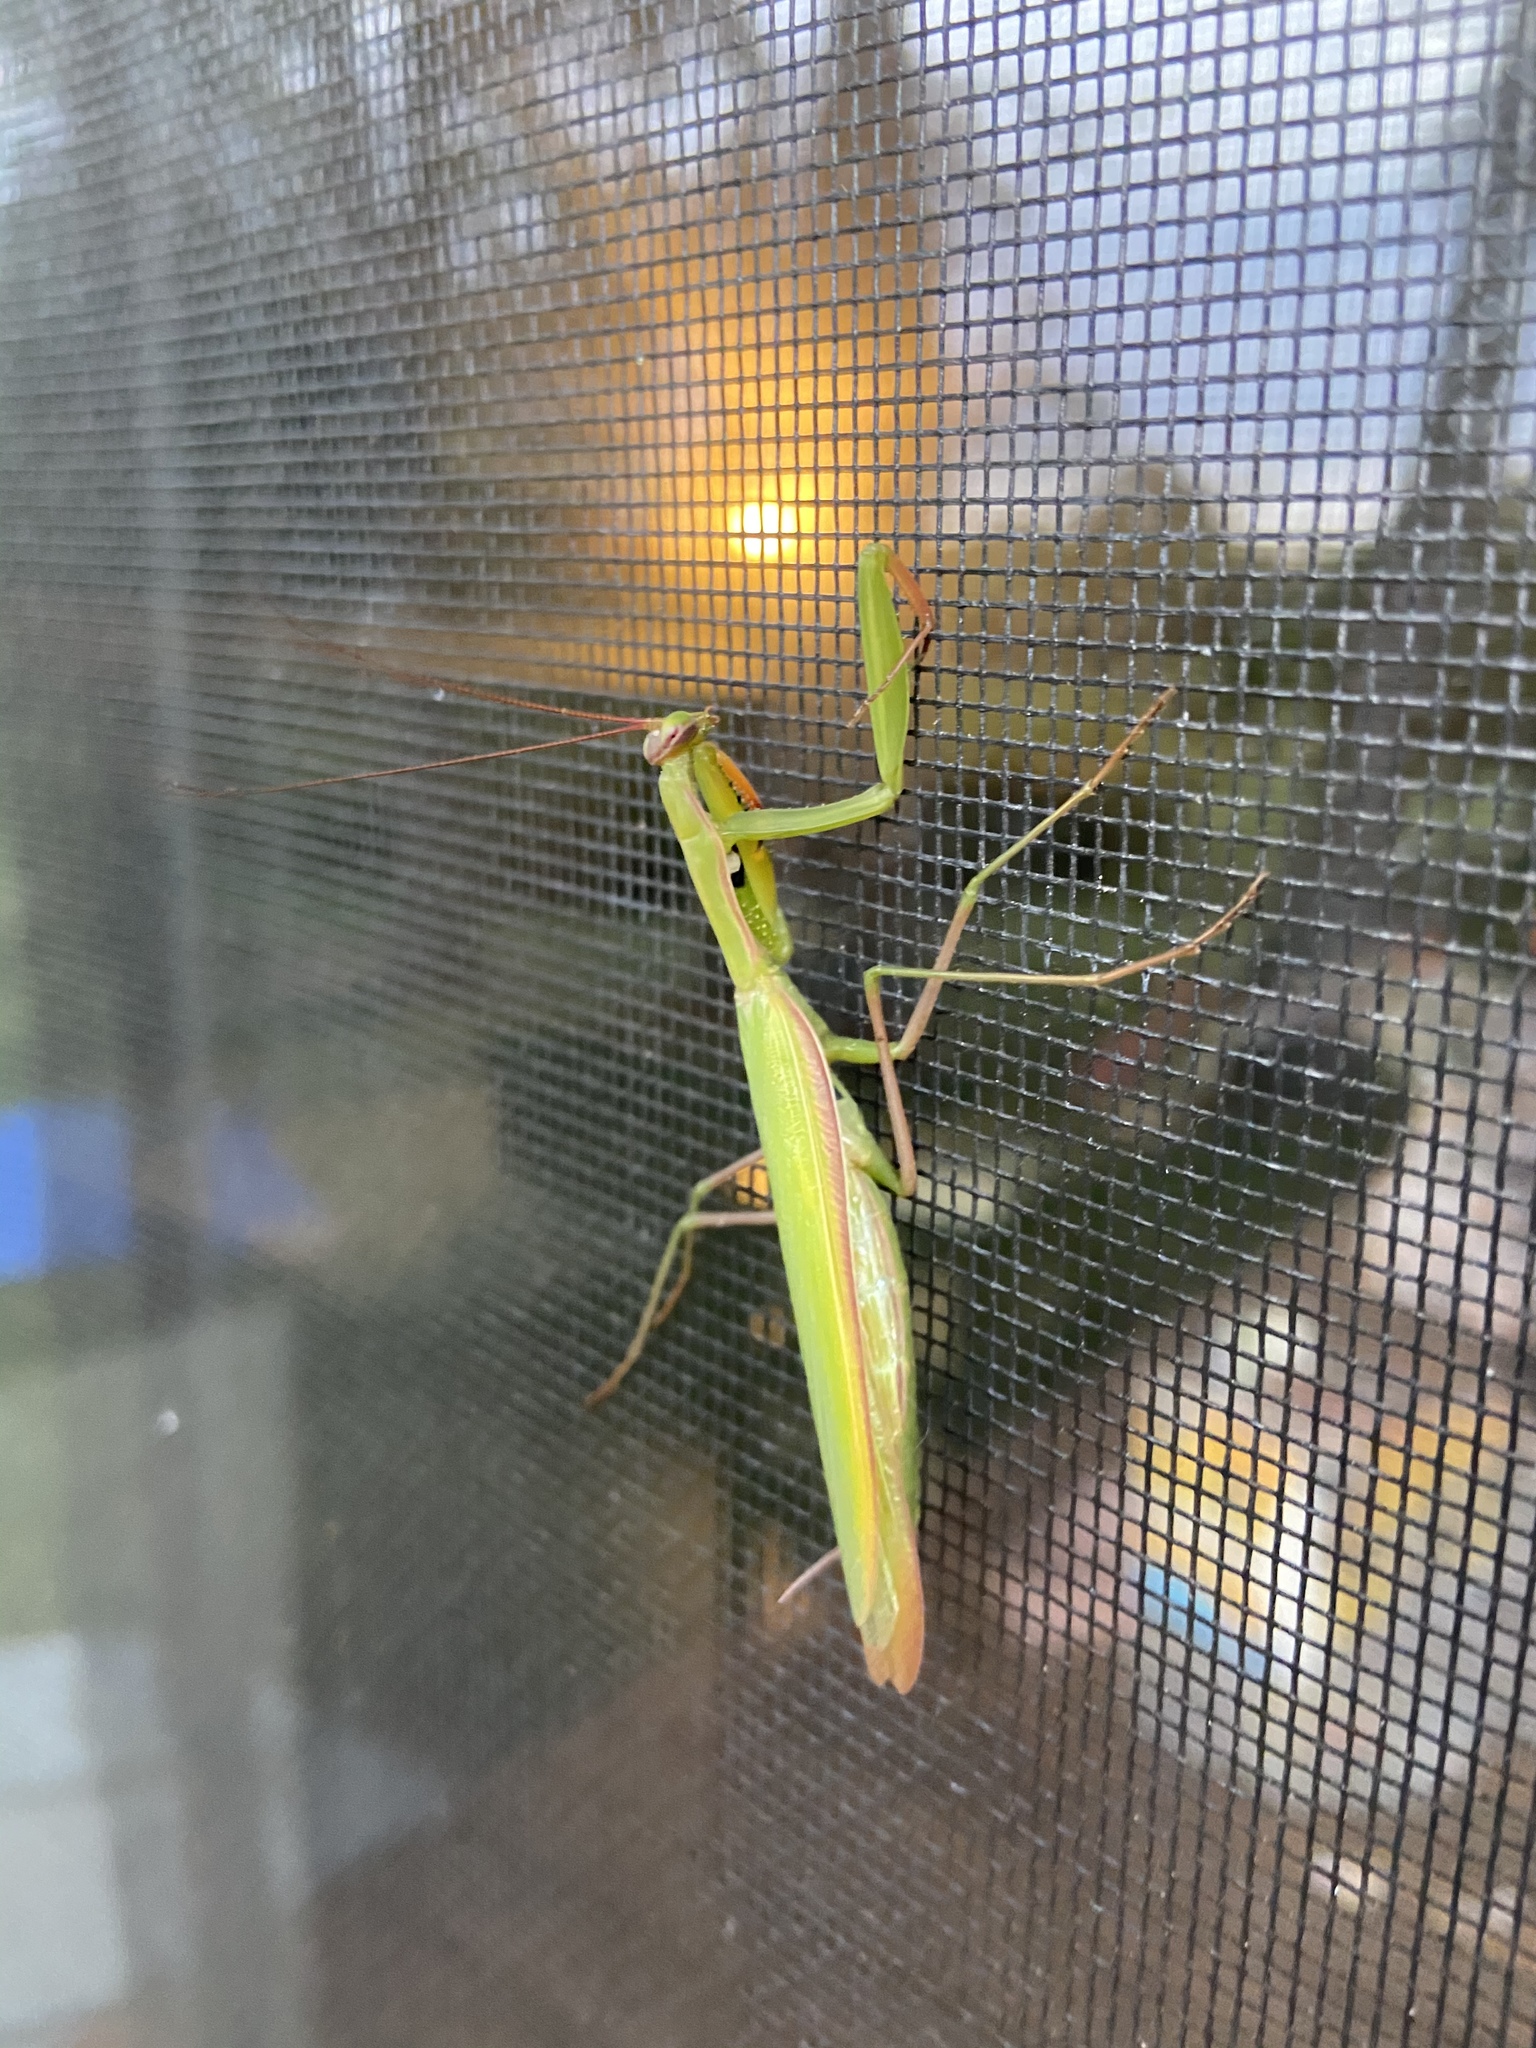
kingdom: Animalia
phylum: Arthropoda
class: Insecta
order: Mantodea
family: Mantidae
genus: Mantis
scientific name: Mantis religiosa
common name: Praying mantis
